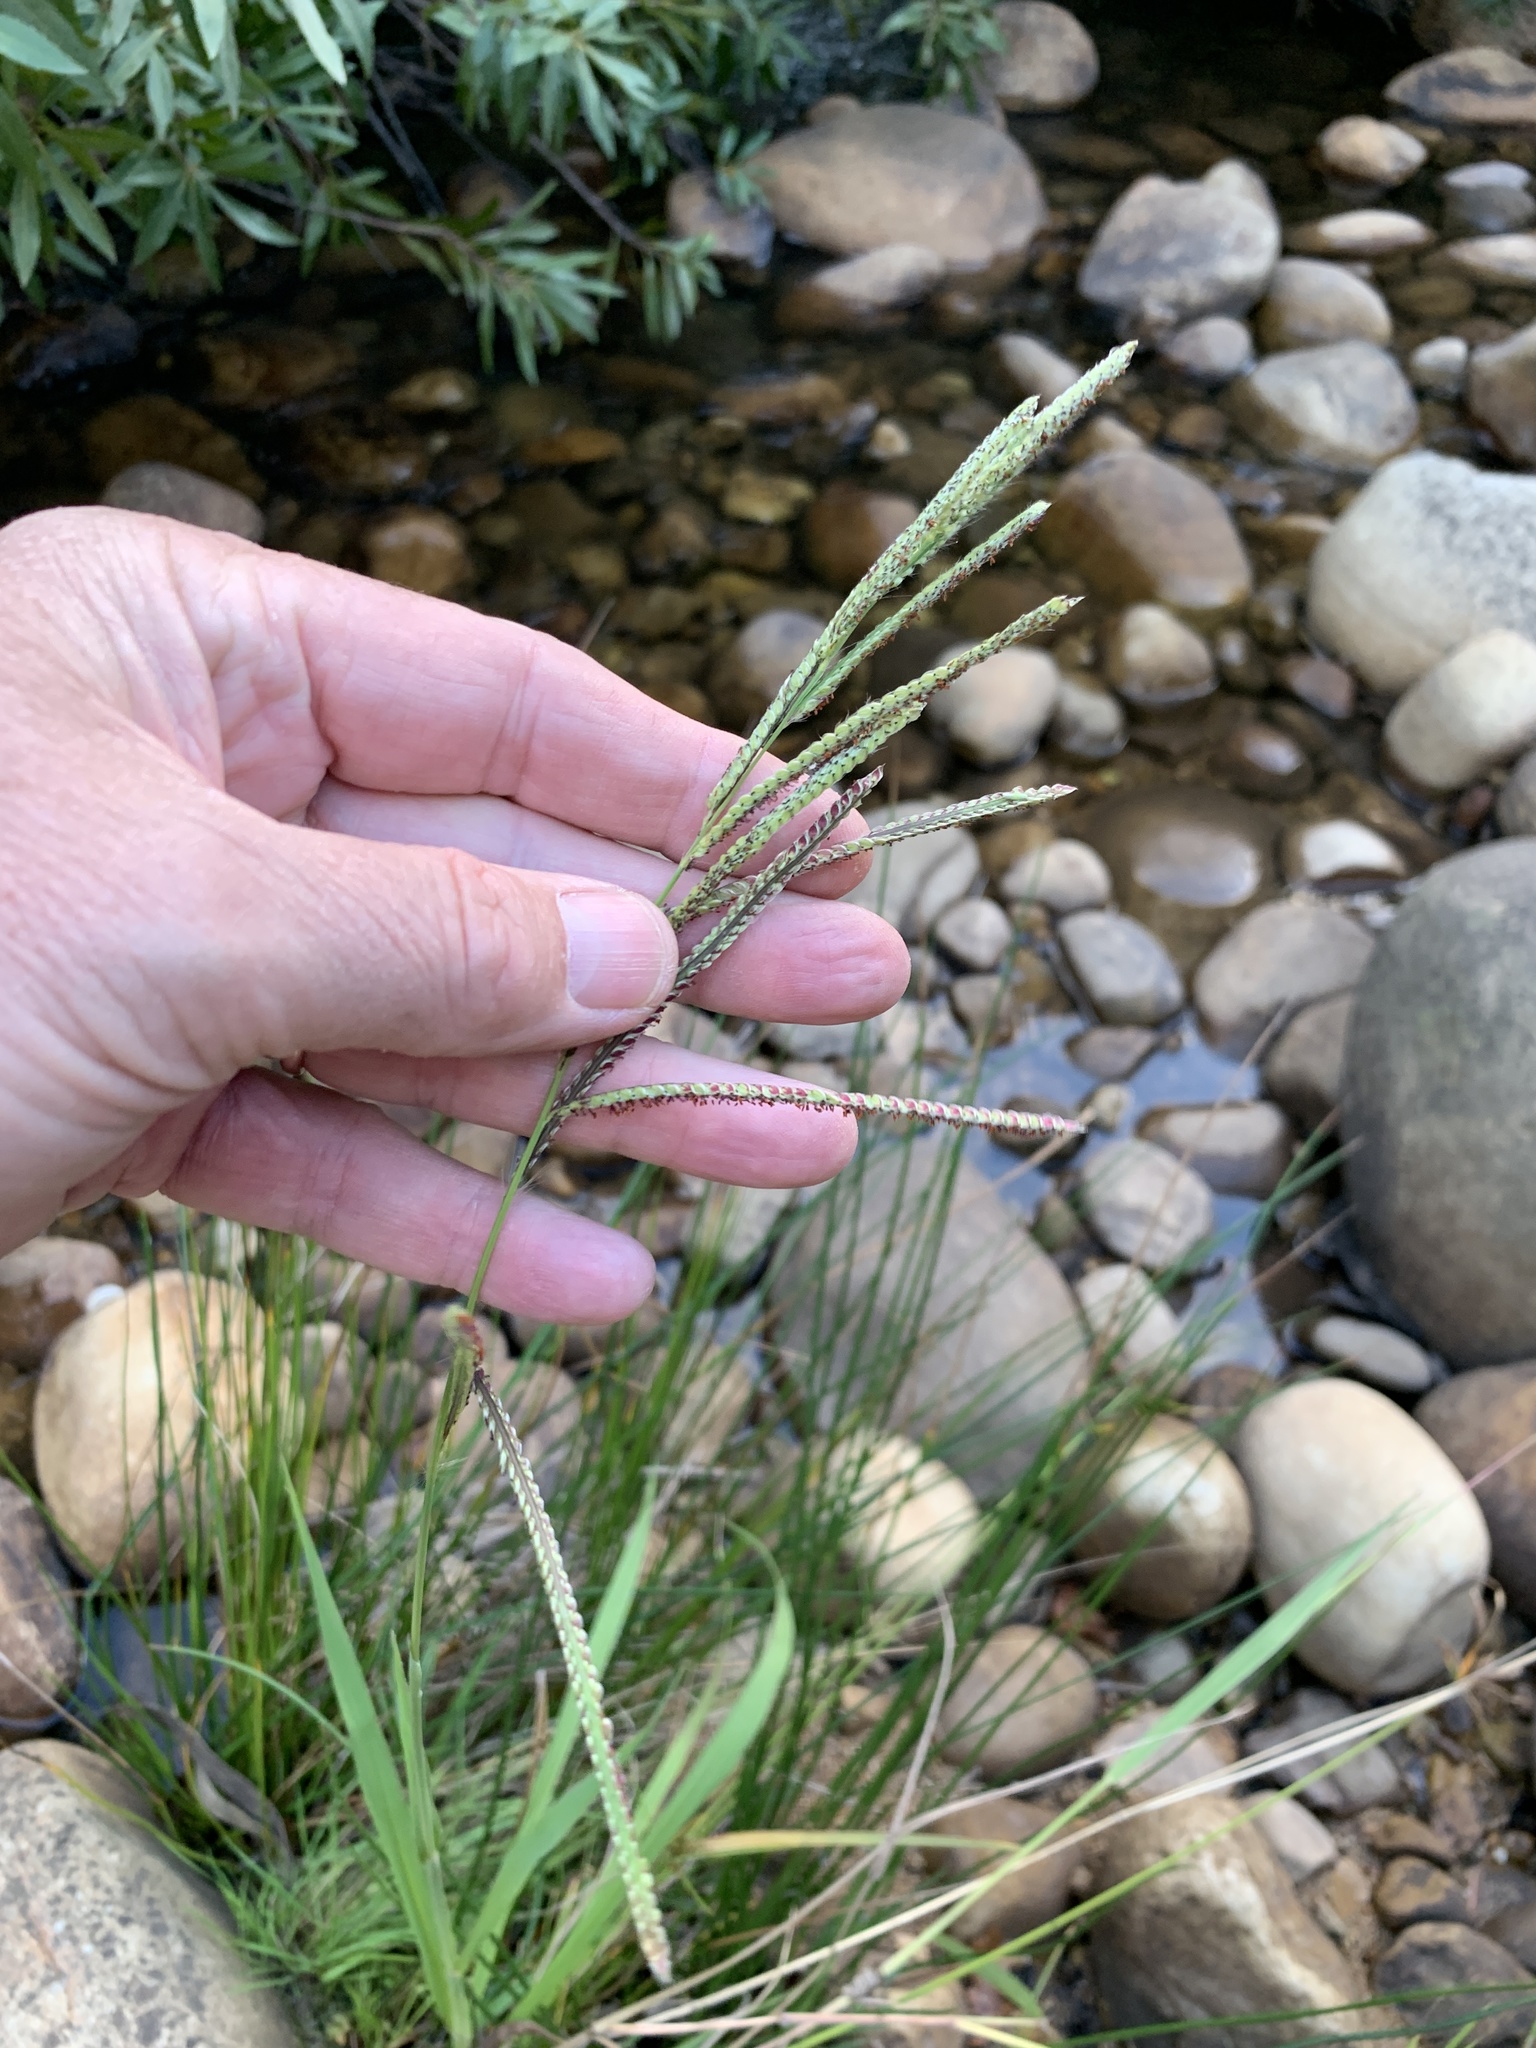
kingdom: Plantae
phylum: Tracheophyta
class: Liliopsida
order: Poales
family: Poaceae
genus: Paspalum
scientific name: Paspalum urvillei
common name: Vasey's grass
